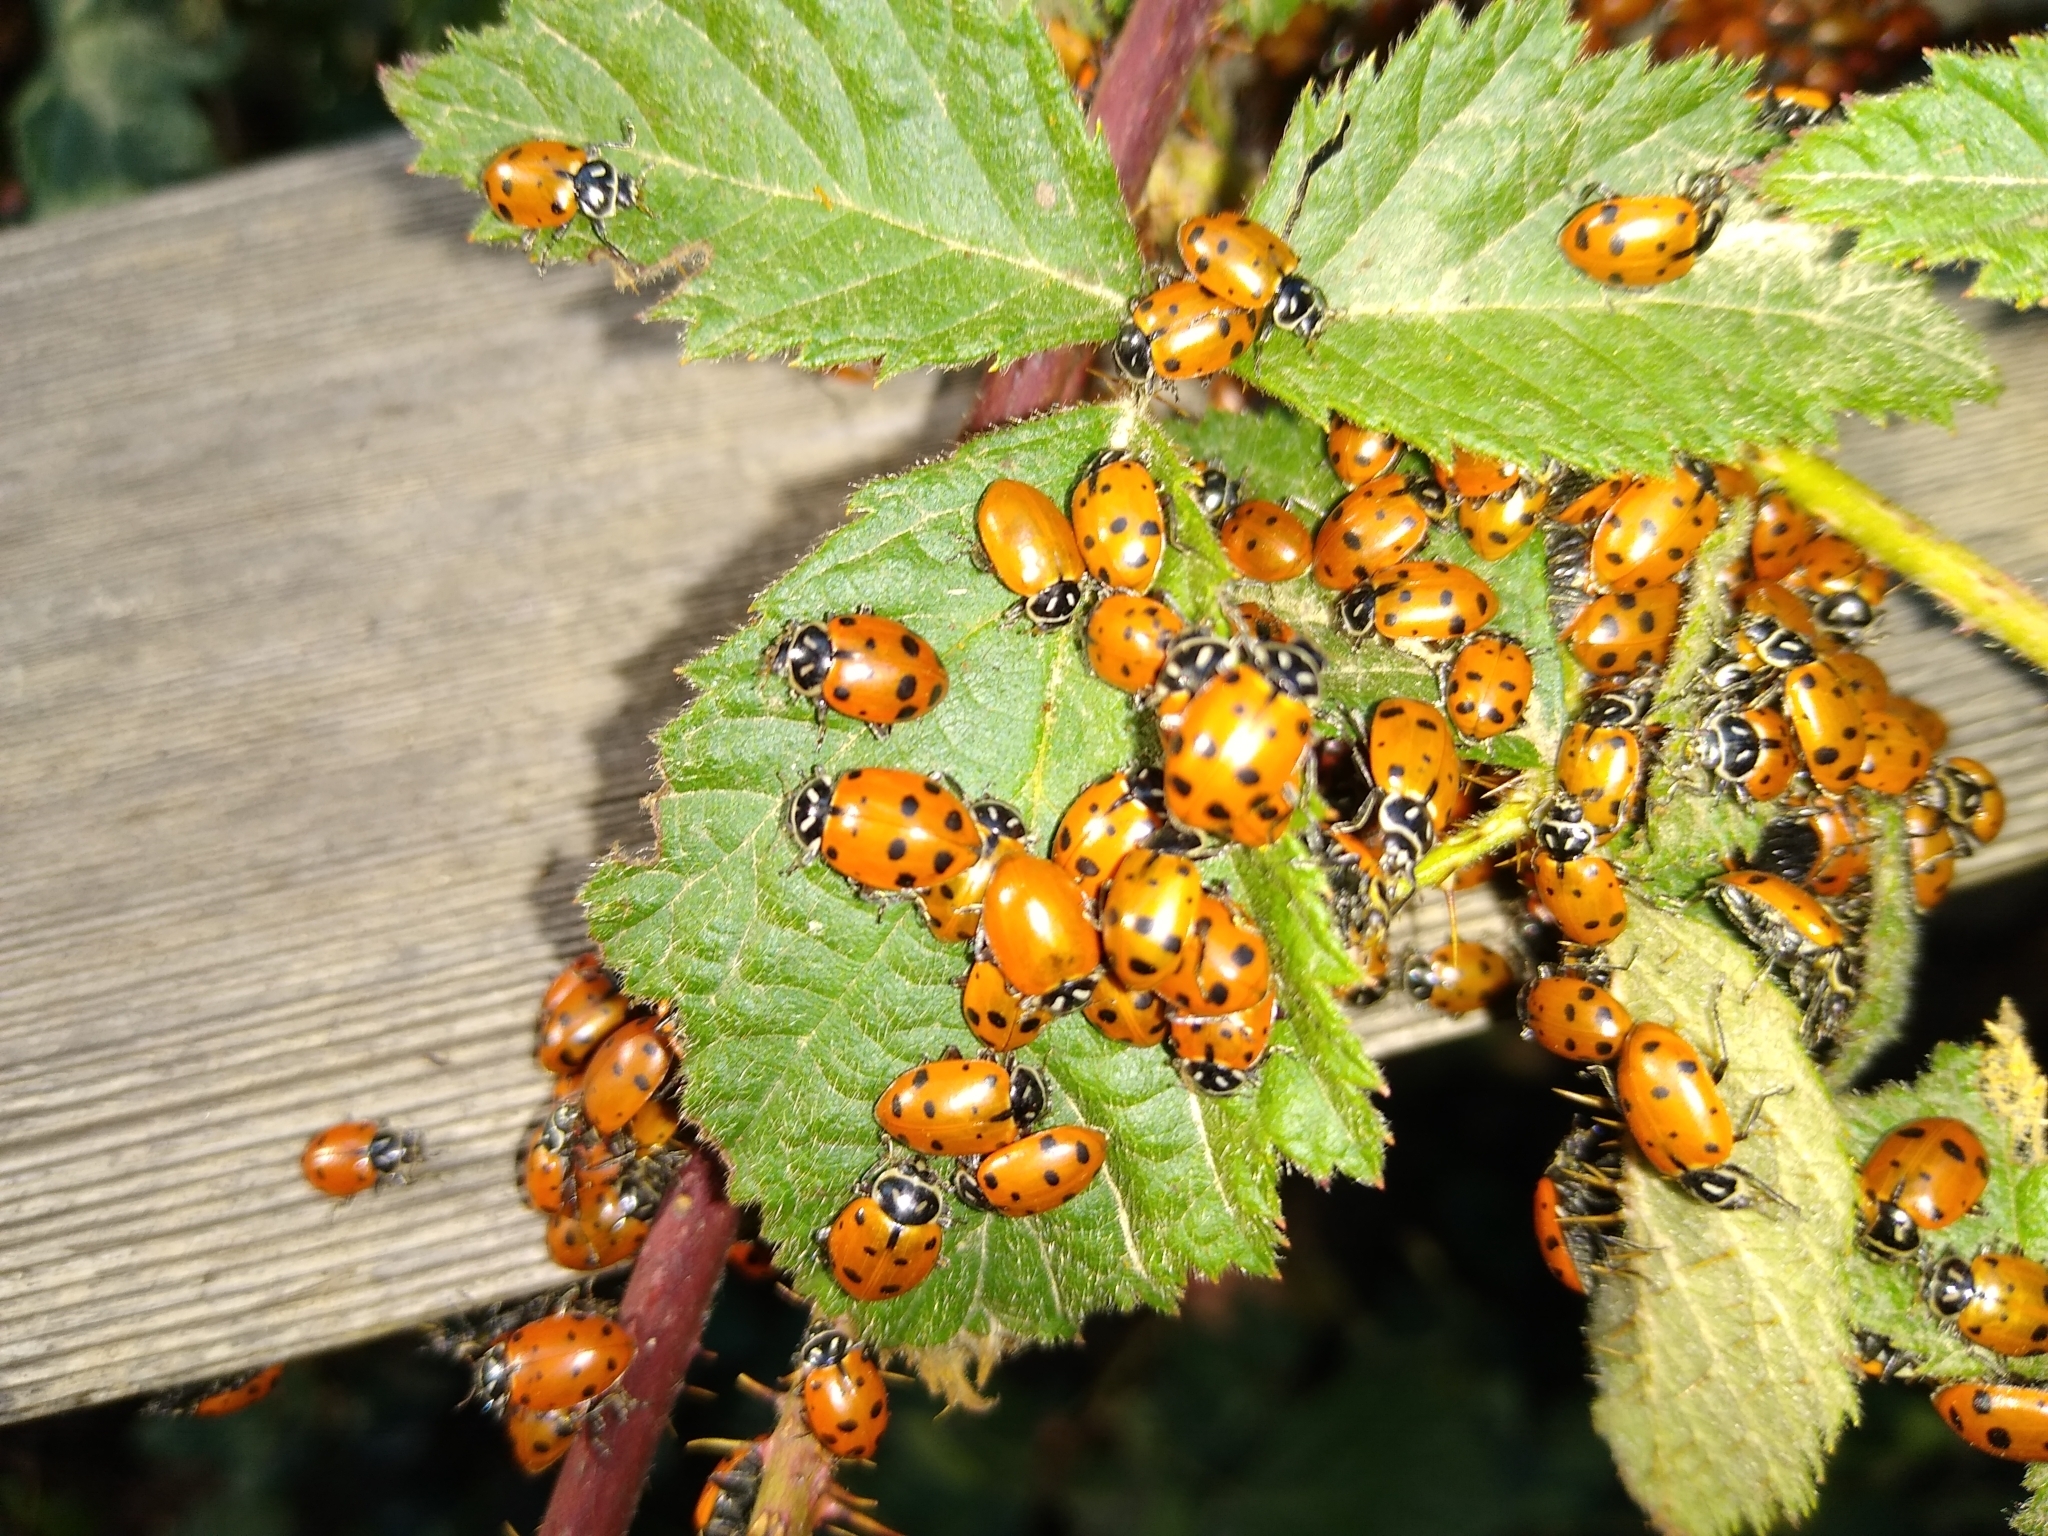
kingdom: Animalia
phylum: Arthropoda
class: Insecta
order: Coleoptera
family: Coccinellidae
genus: Hippodamia
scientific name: Hippodamia convergens
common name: Convergent lady beetle
